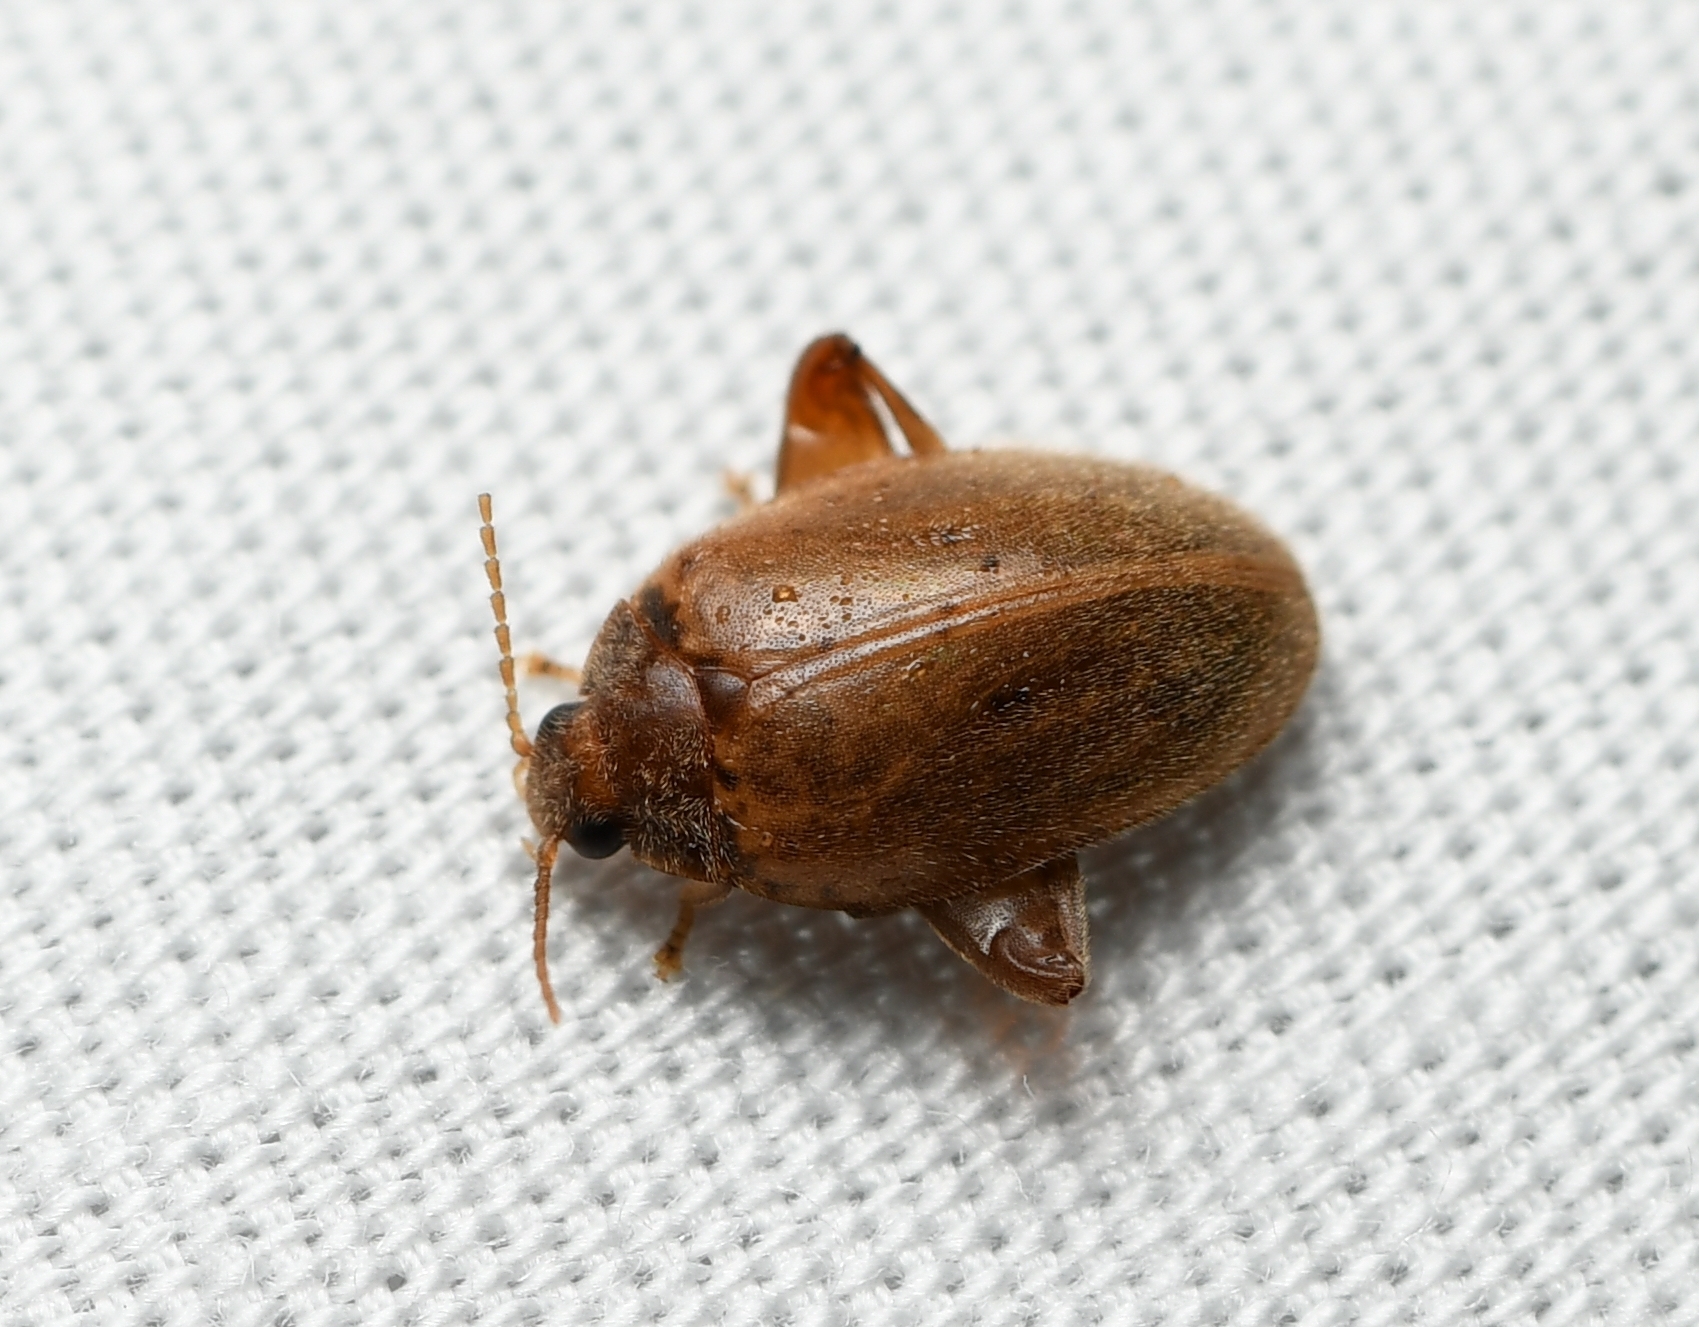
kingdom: Animalia
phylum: Arthropoda
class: Insecta
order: Coleoptera
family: Scirtidae
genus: Ora
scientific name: Ora discoidea
